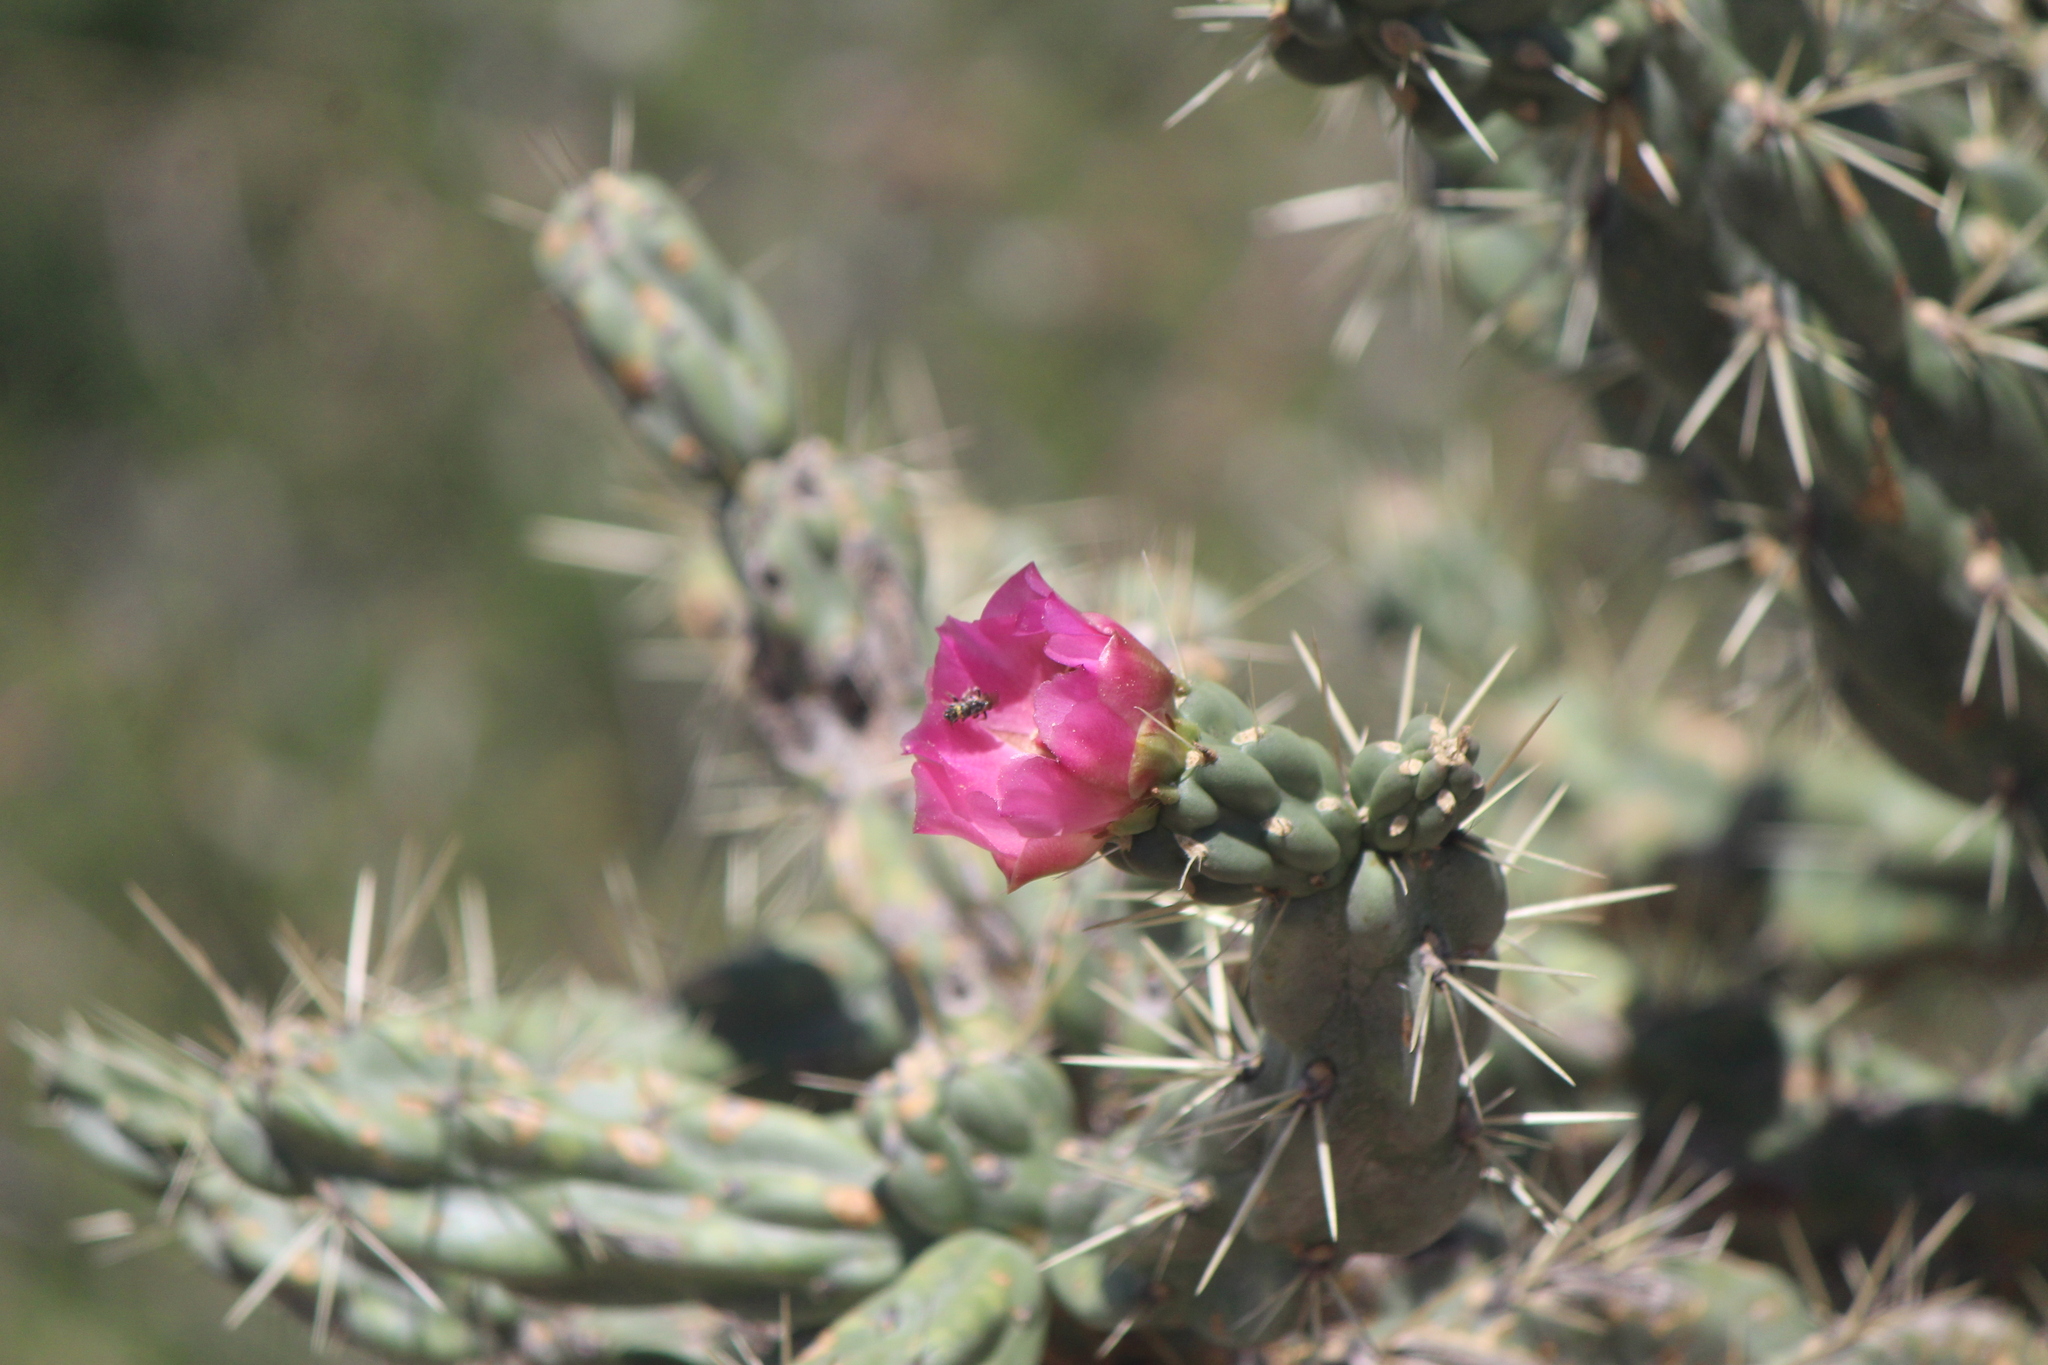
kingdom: Plantae
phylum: Tracheophyta
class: Magnoliopsida
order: Caryophyllales
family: Cactaceae
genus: Cylindropuntia
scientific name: Cylindropuntia imbricata
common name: Candelabrum cactus
